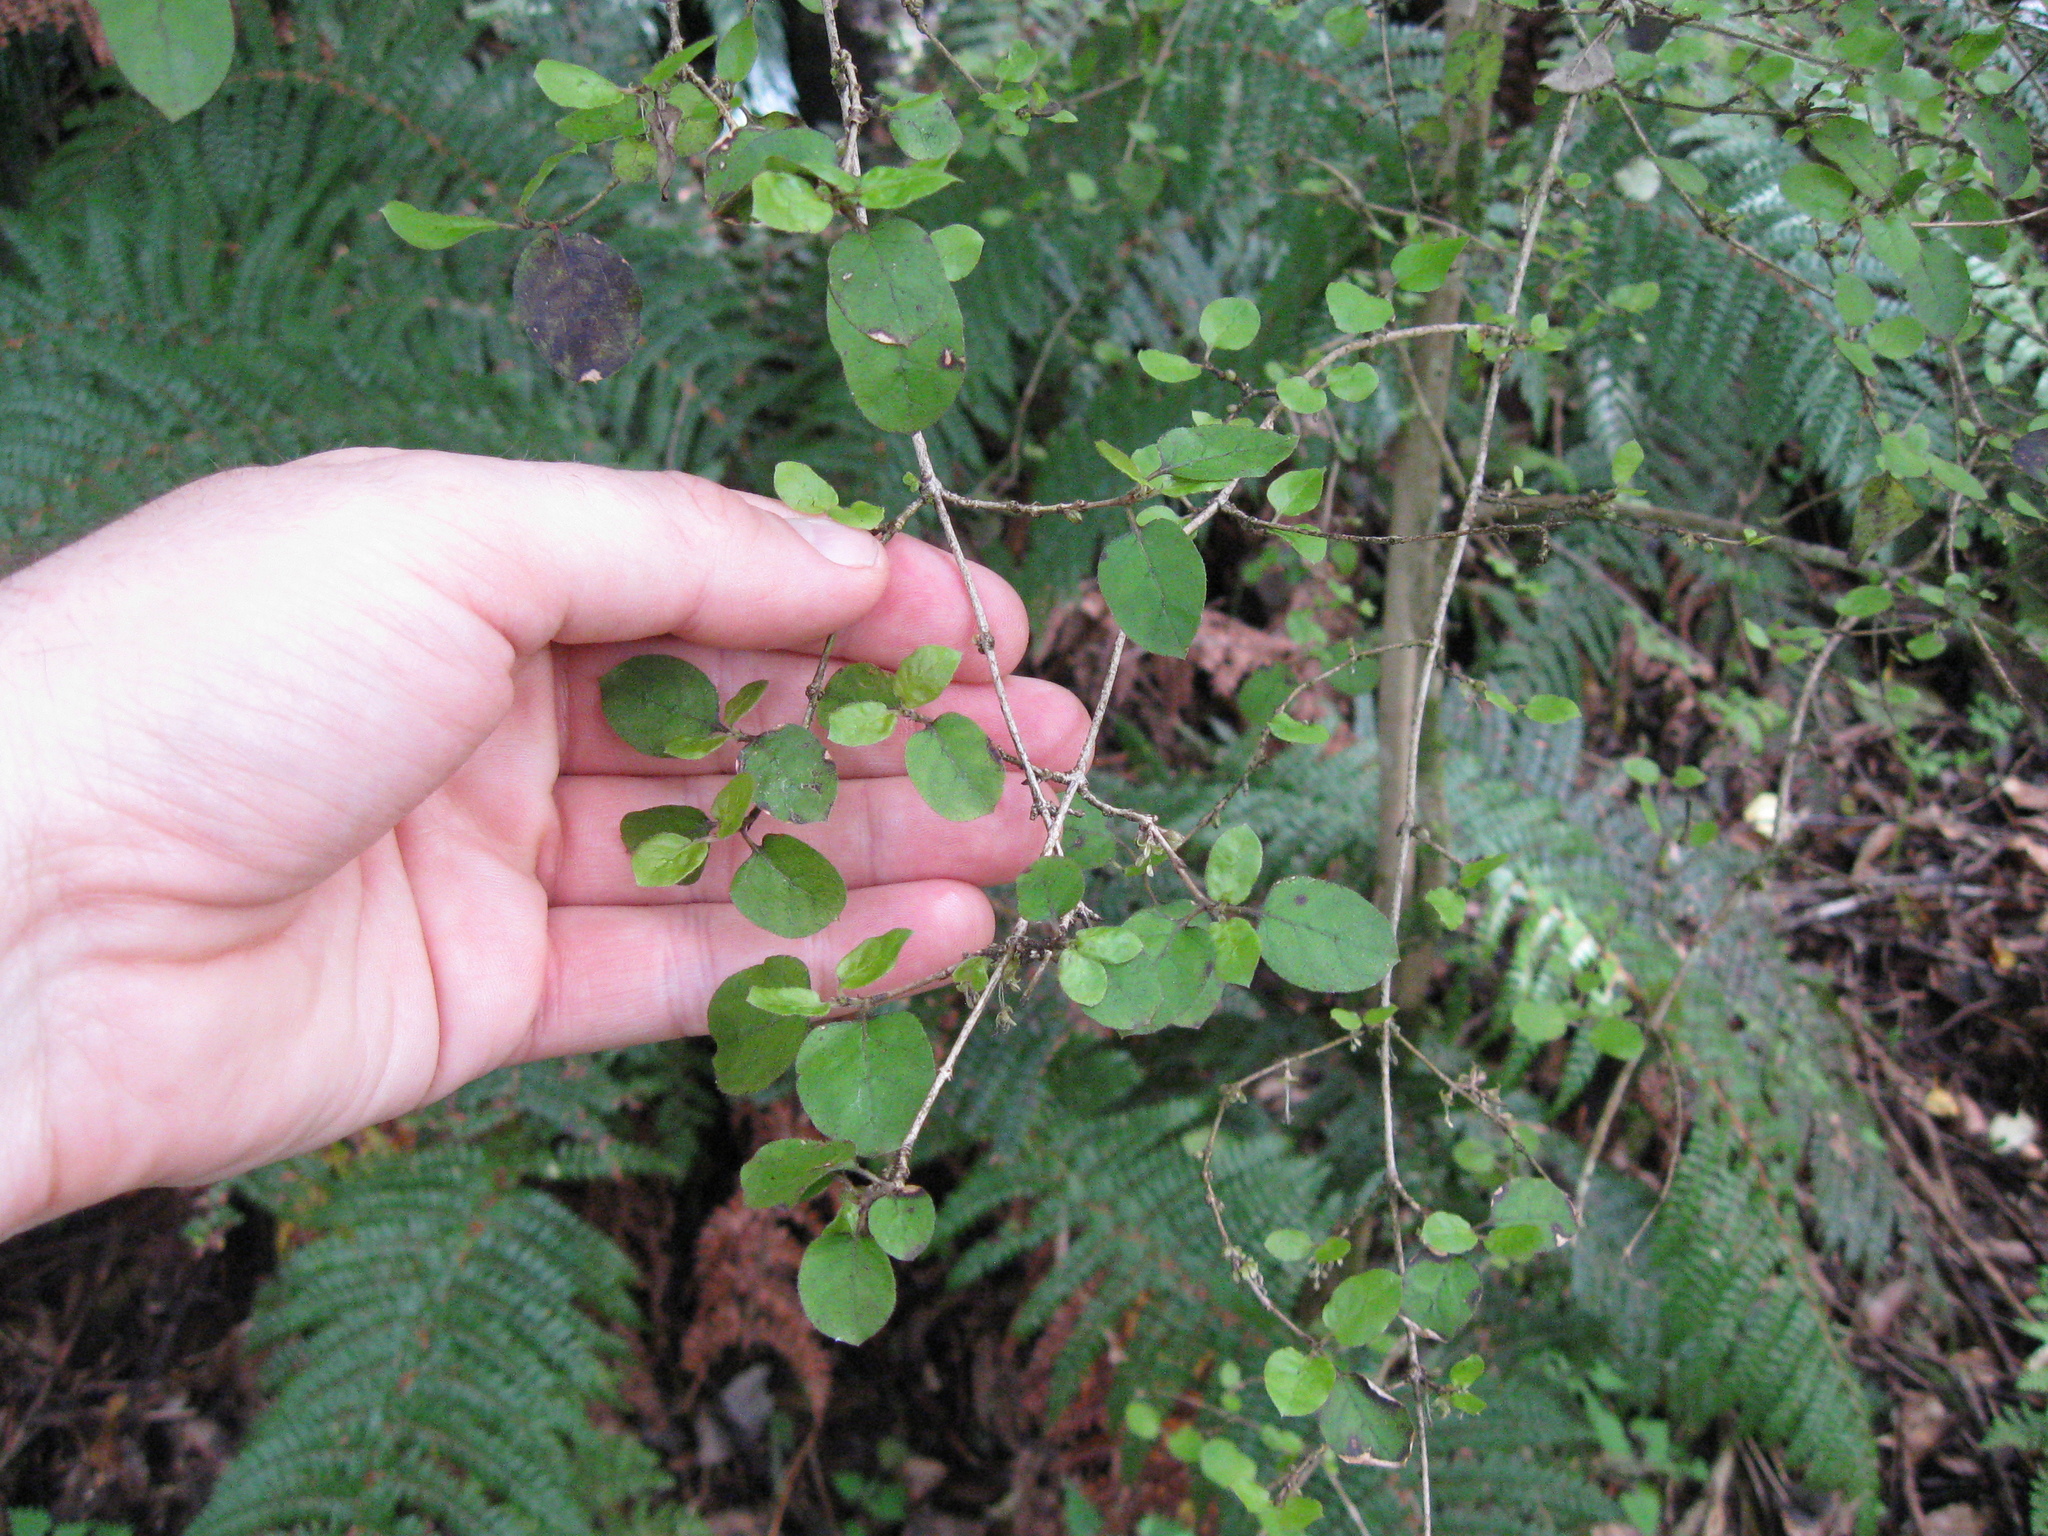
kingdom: Plantae
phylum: Tracheophyta
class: Magnoliopsida
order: Gentianales
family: Rubiaceae
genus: Coprosma
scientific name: Coprosma rotundifolia
